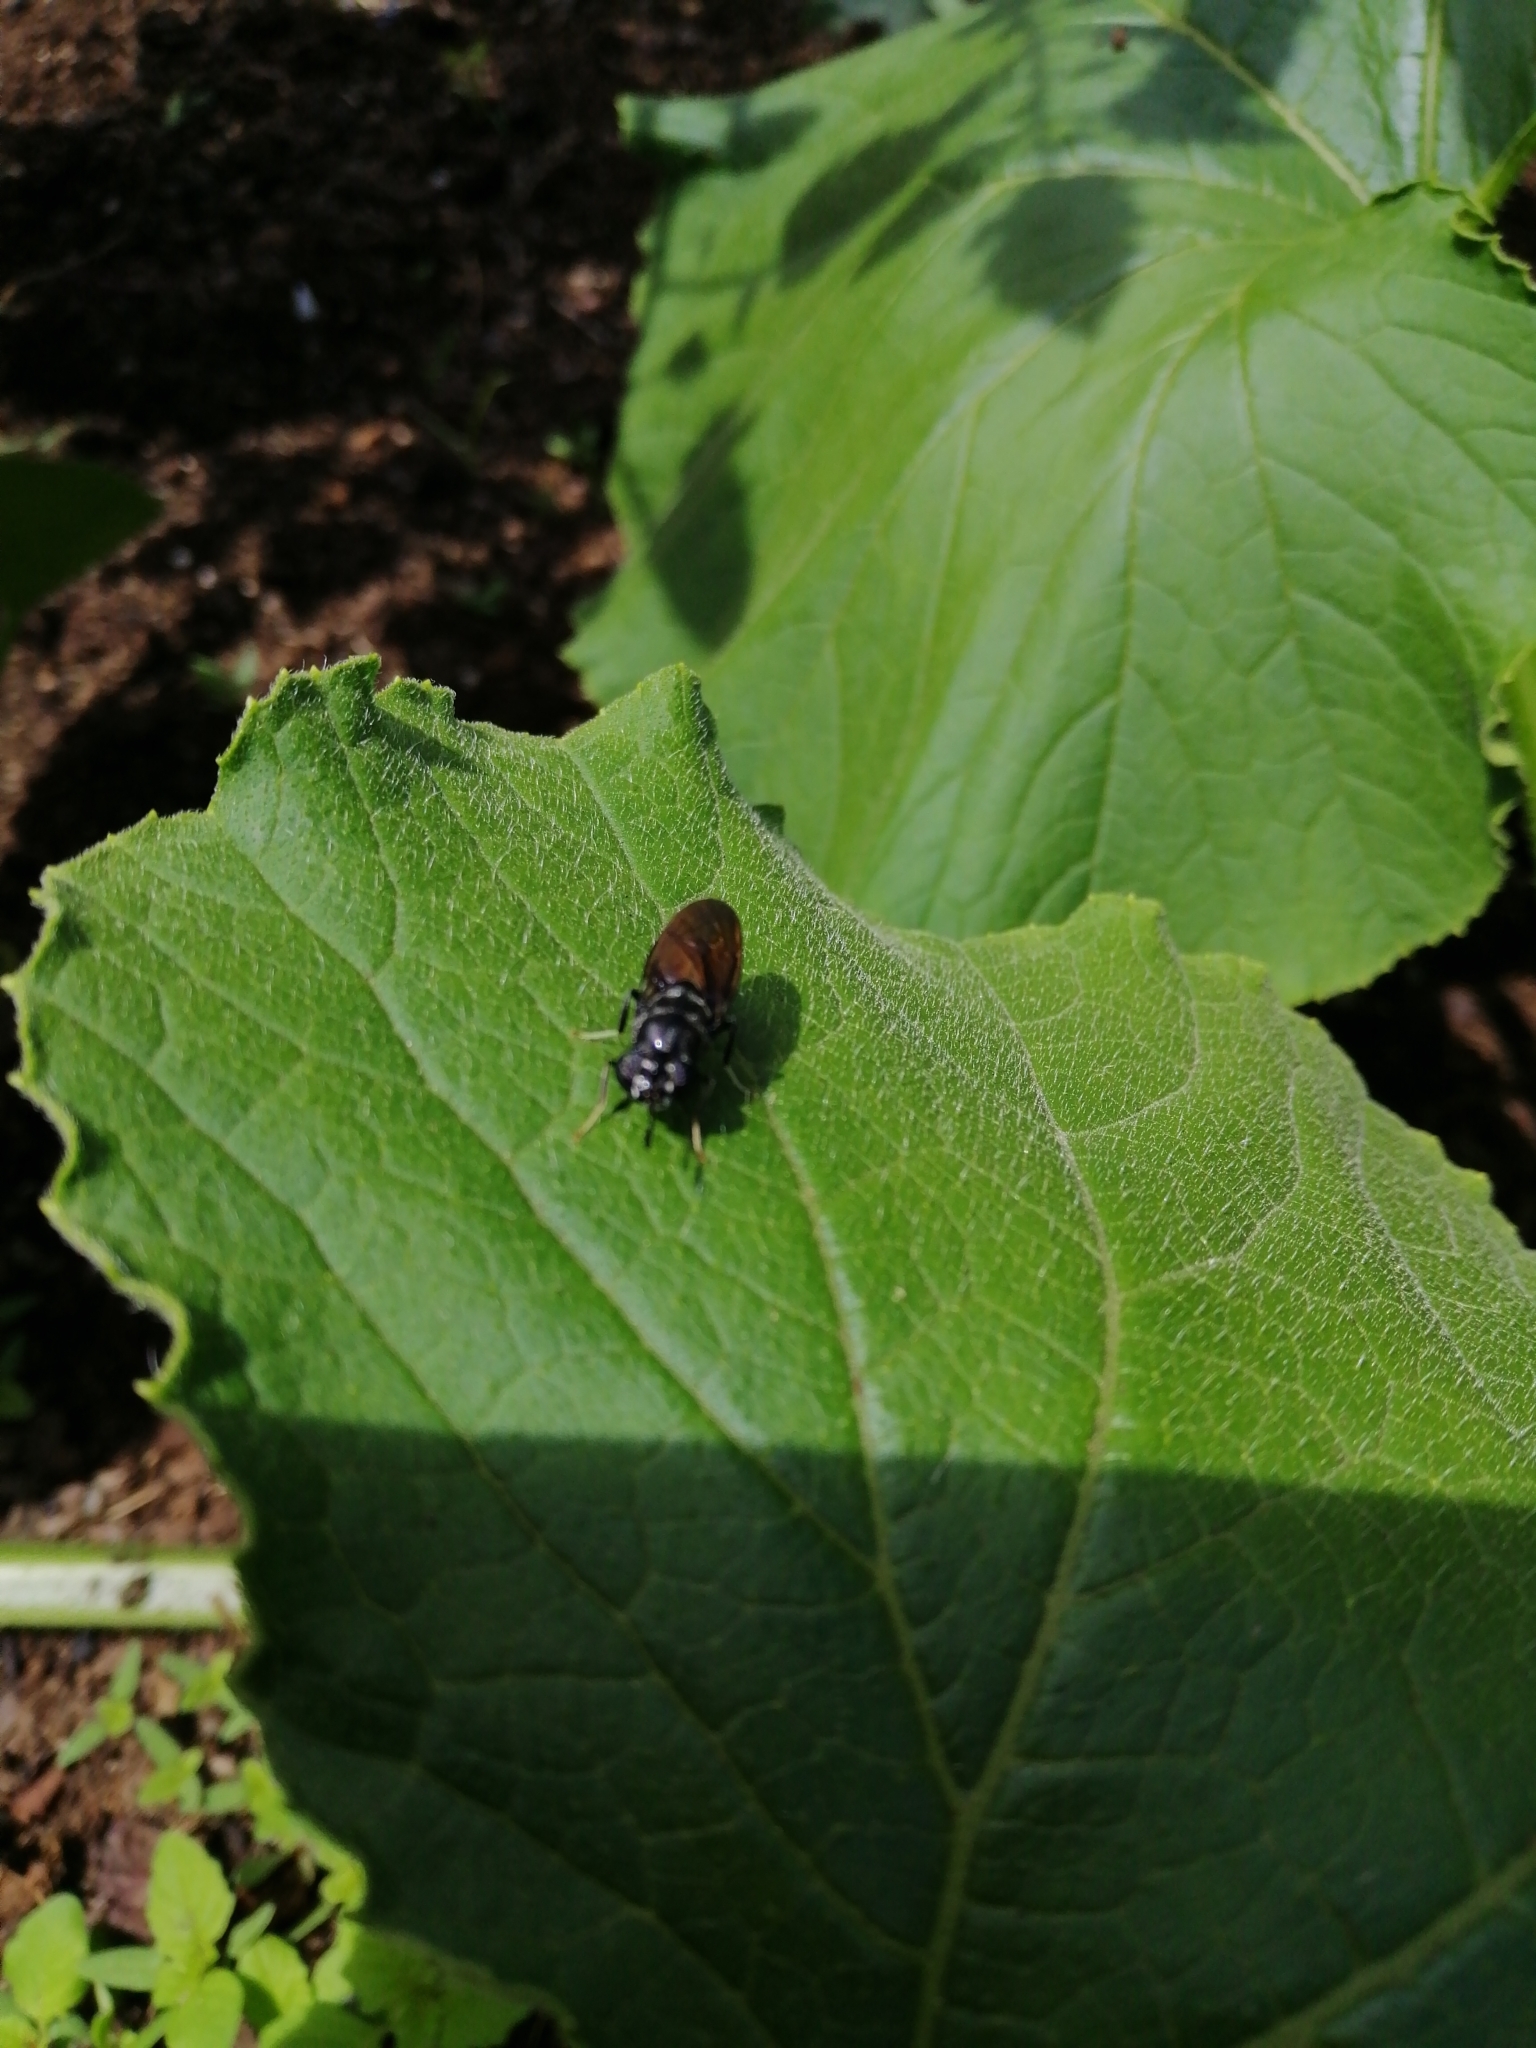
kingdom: Animalia
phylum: Arthropoda
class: Insecta
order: Diptera
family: Stratiomyidae
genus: Hermetia
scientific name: Hermetia illucens
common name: Black soldier fly
